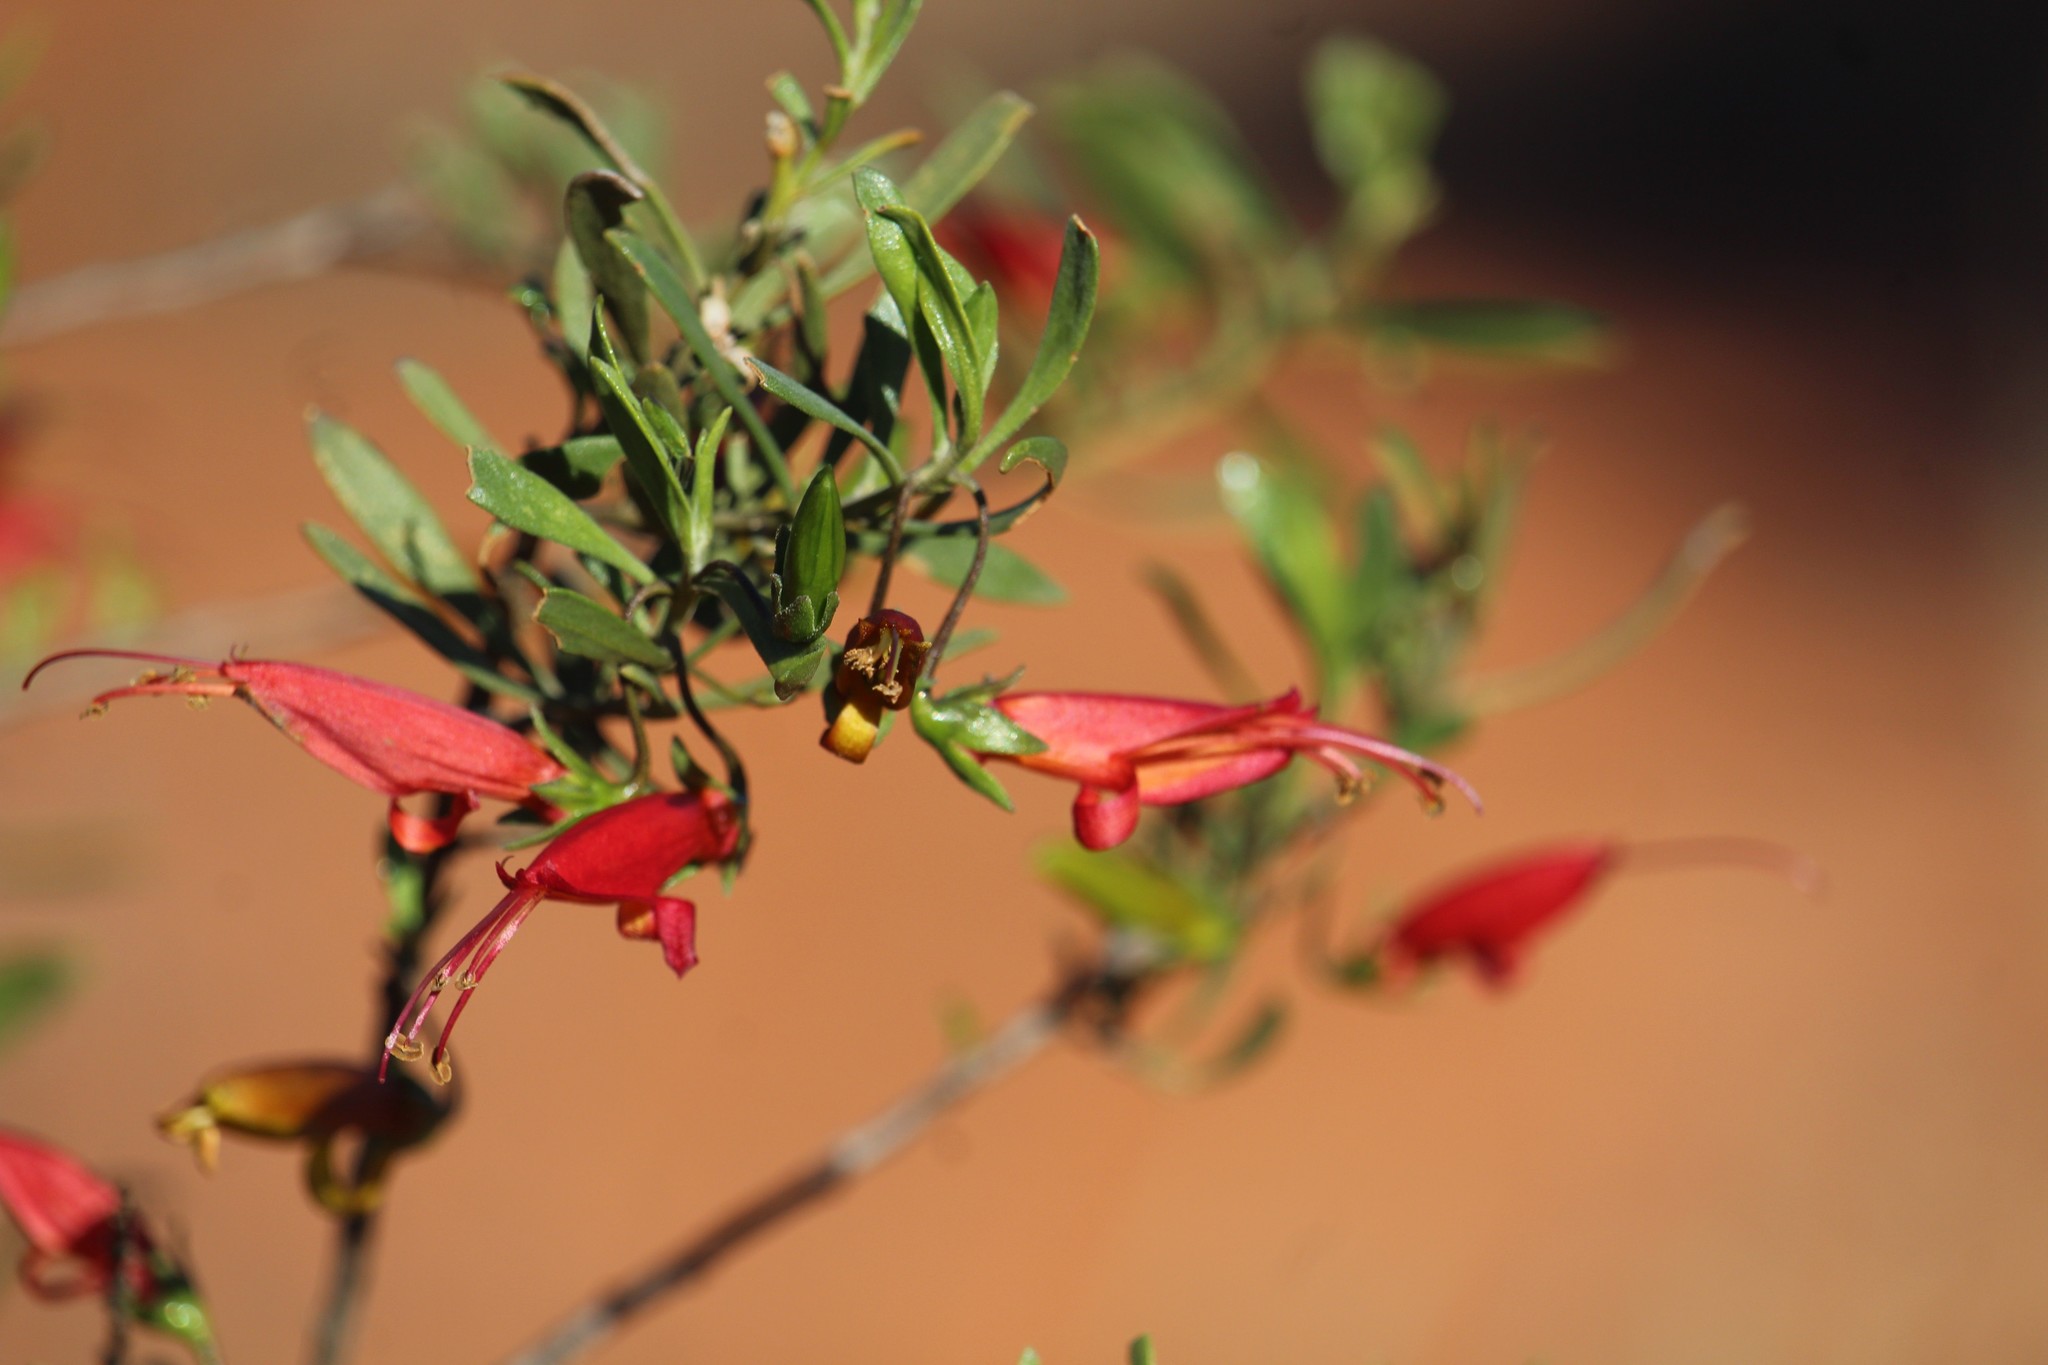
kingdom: Plantae
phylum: Tracheophyta
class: Magnoliopsida
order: Lamiales
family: Scrophulariaceae
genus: Eremophila
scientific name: Eremophila decipiens
